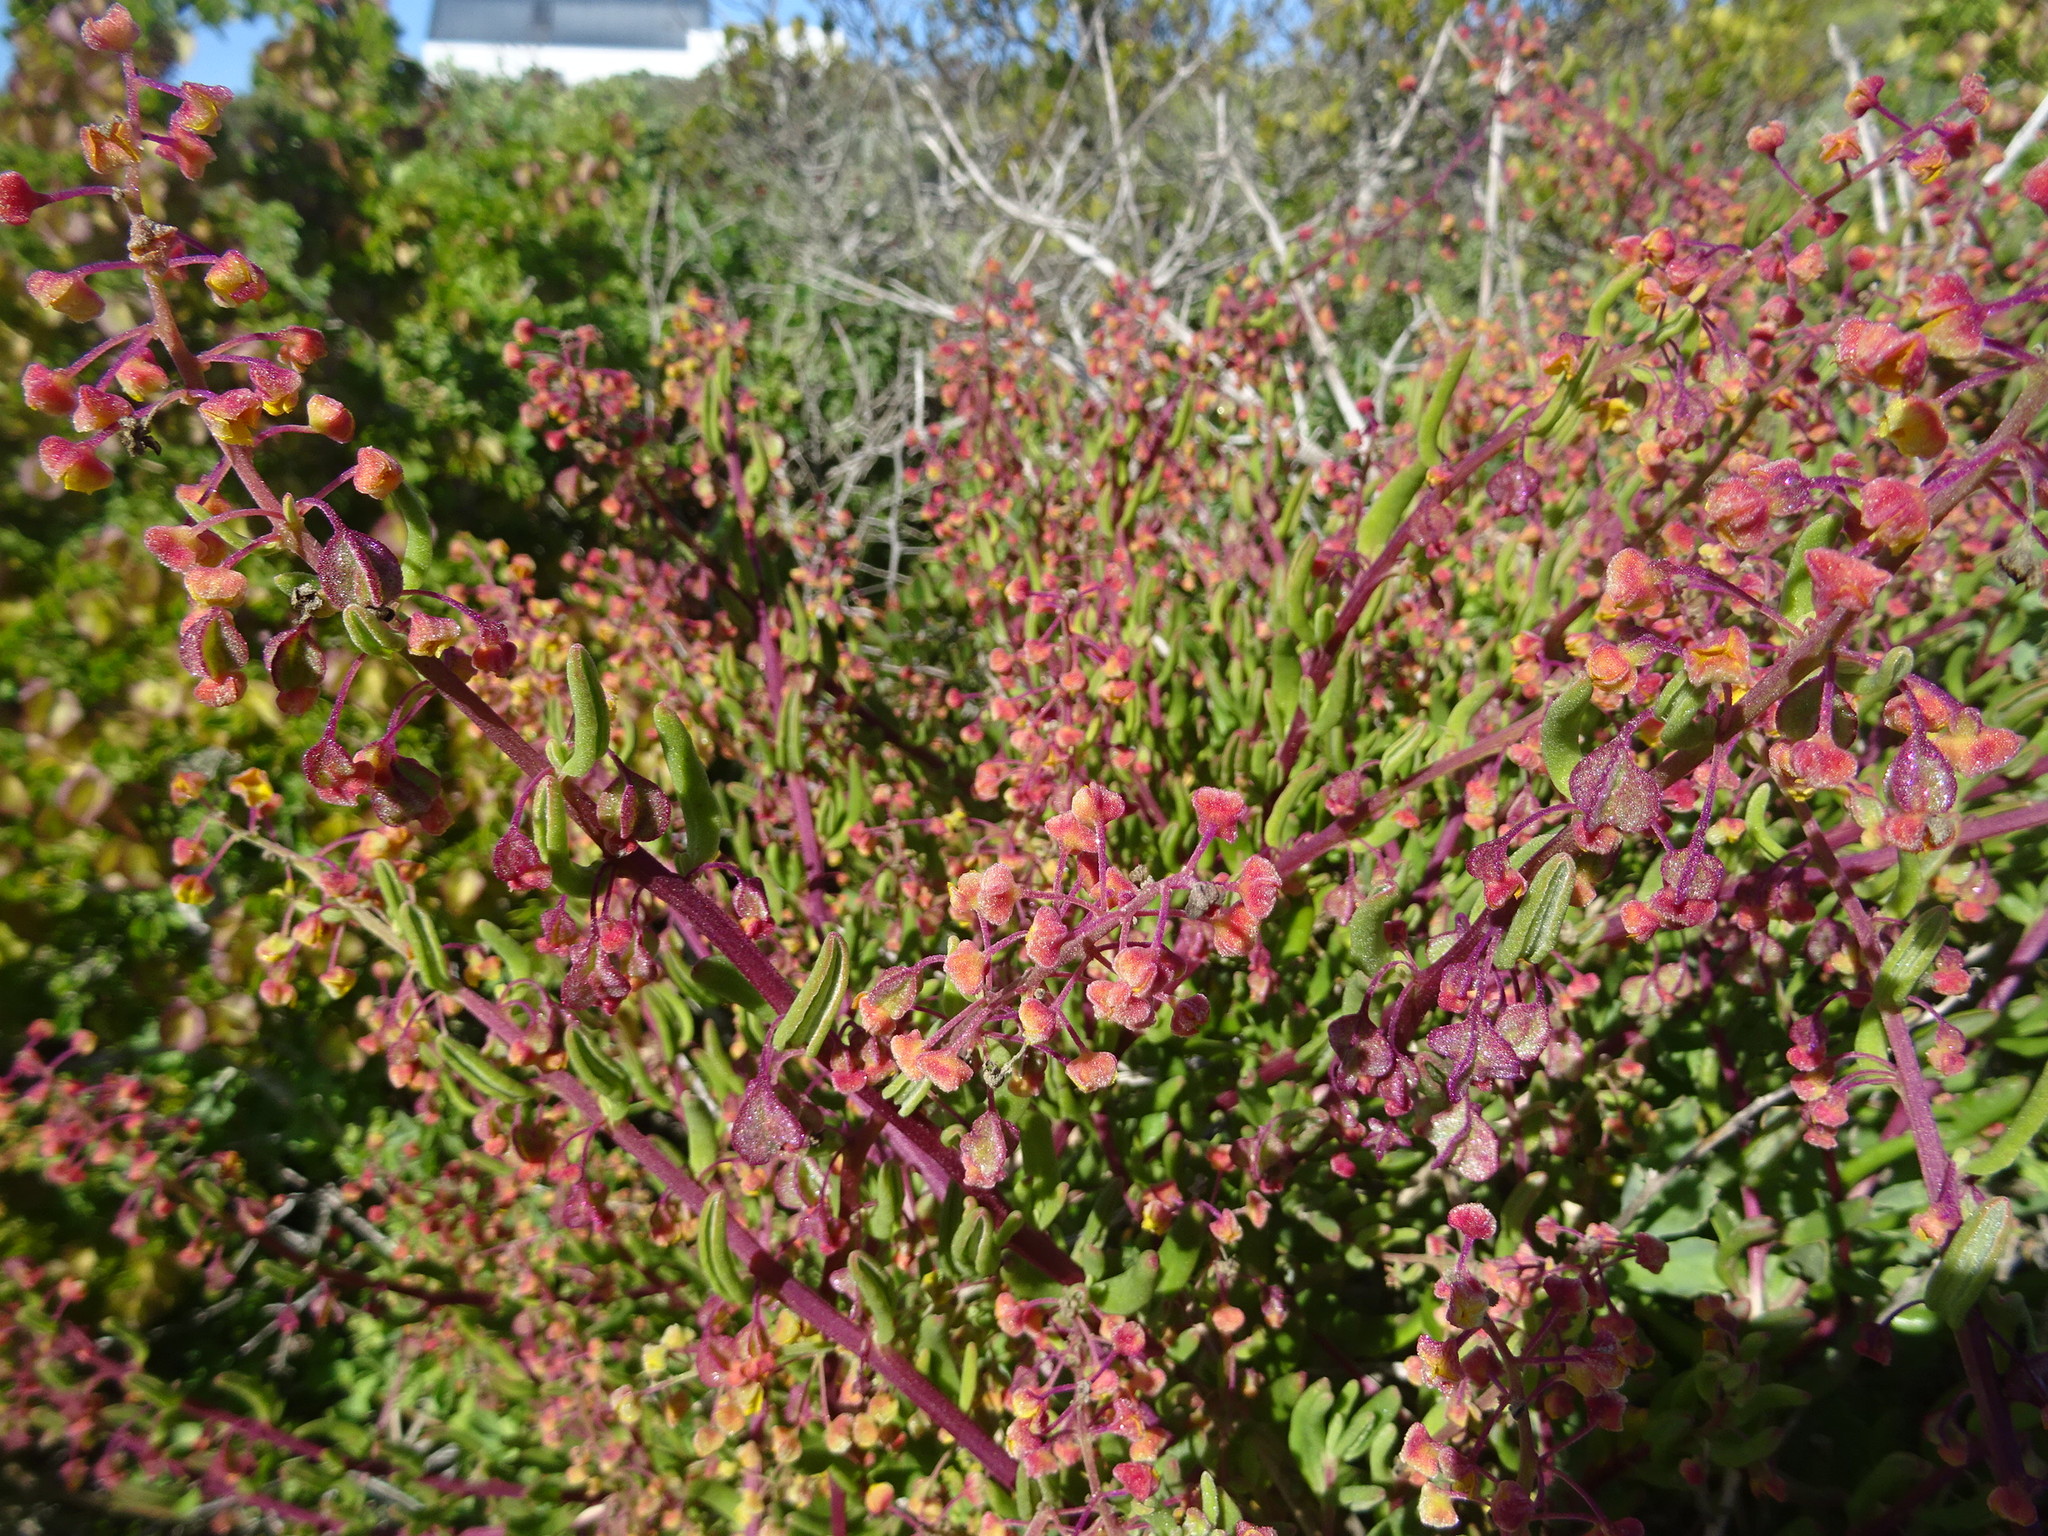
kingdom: Plantae
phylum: Tracheophyta
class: Magnoliopsida
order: Caryophyllales
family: Aizoaceae
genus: Tetragonia
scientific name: Tetragonia fruticosa
